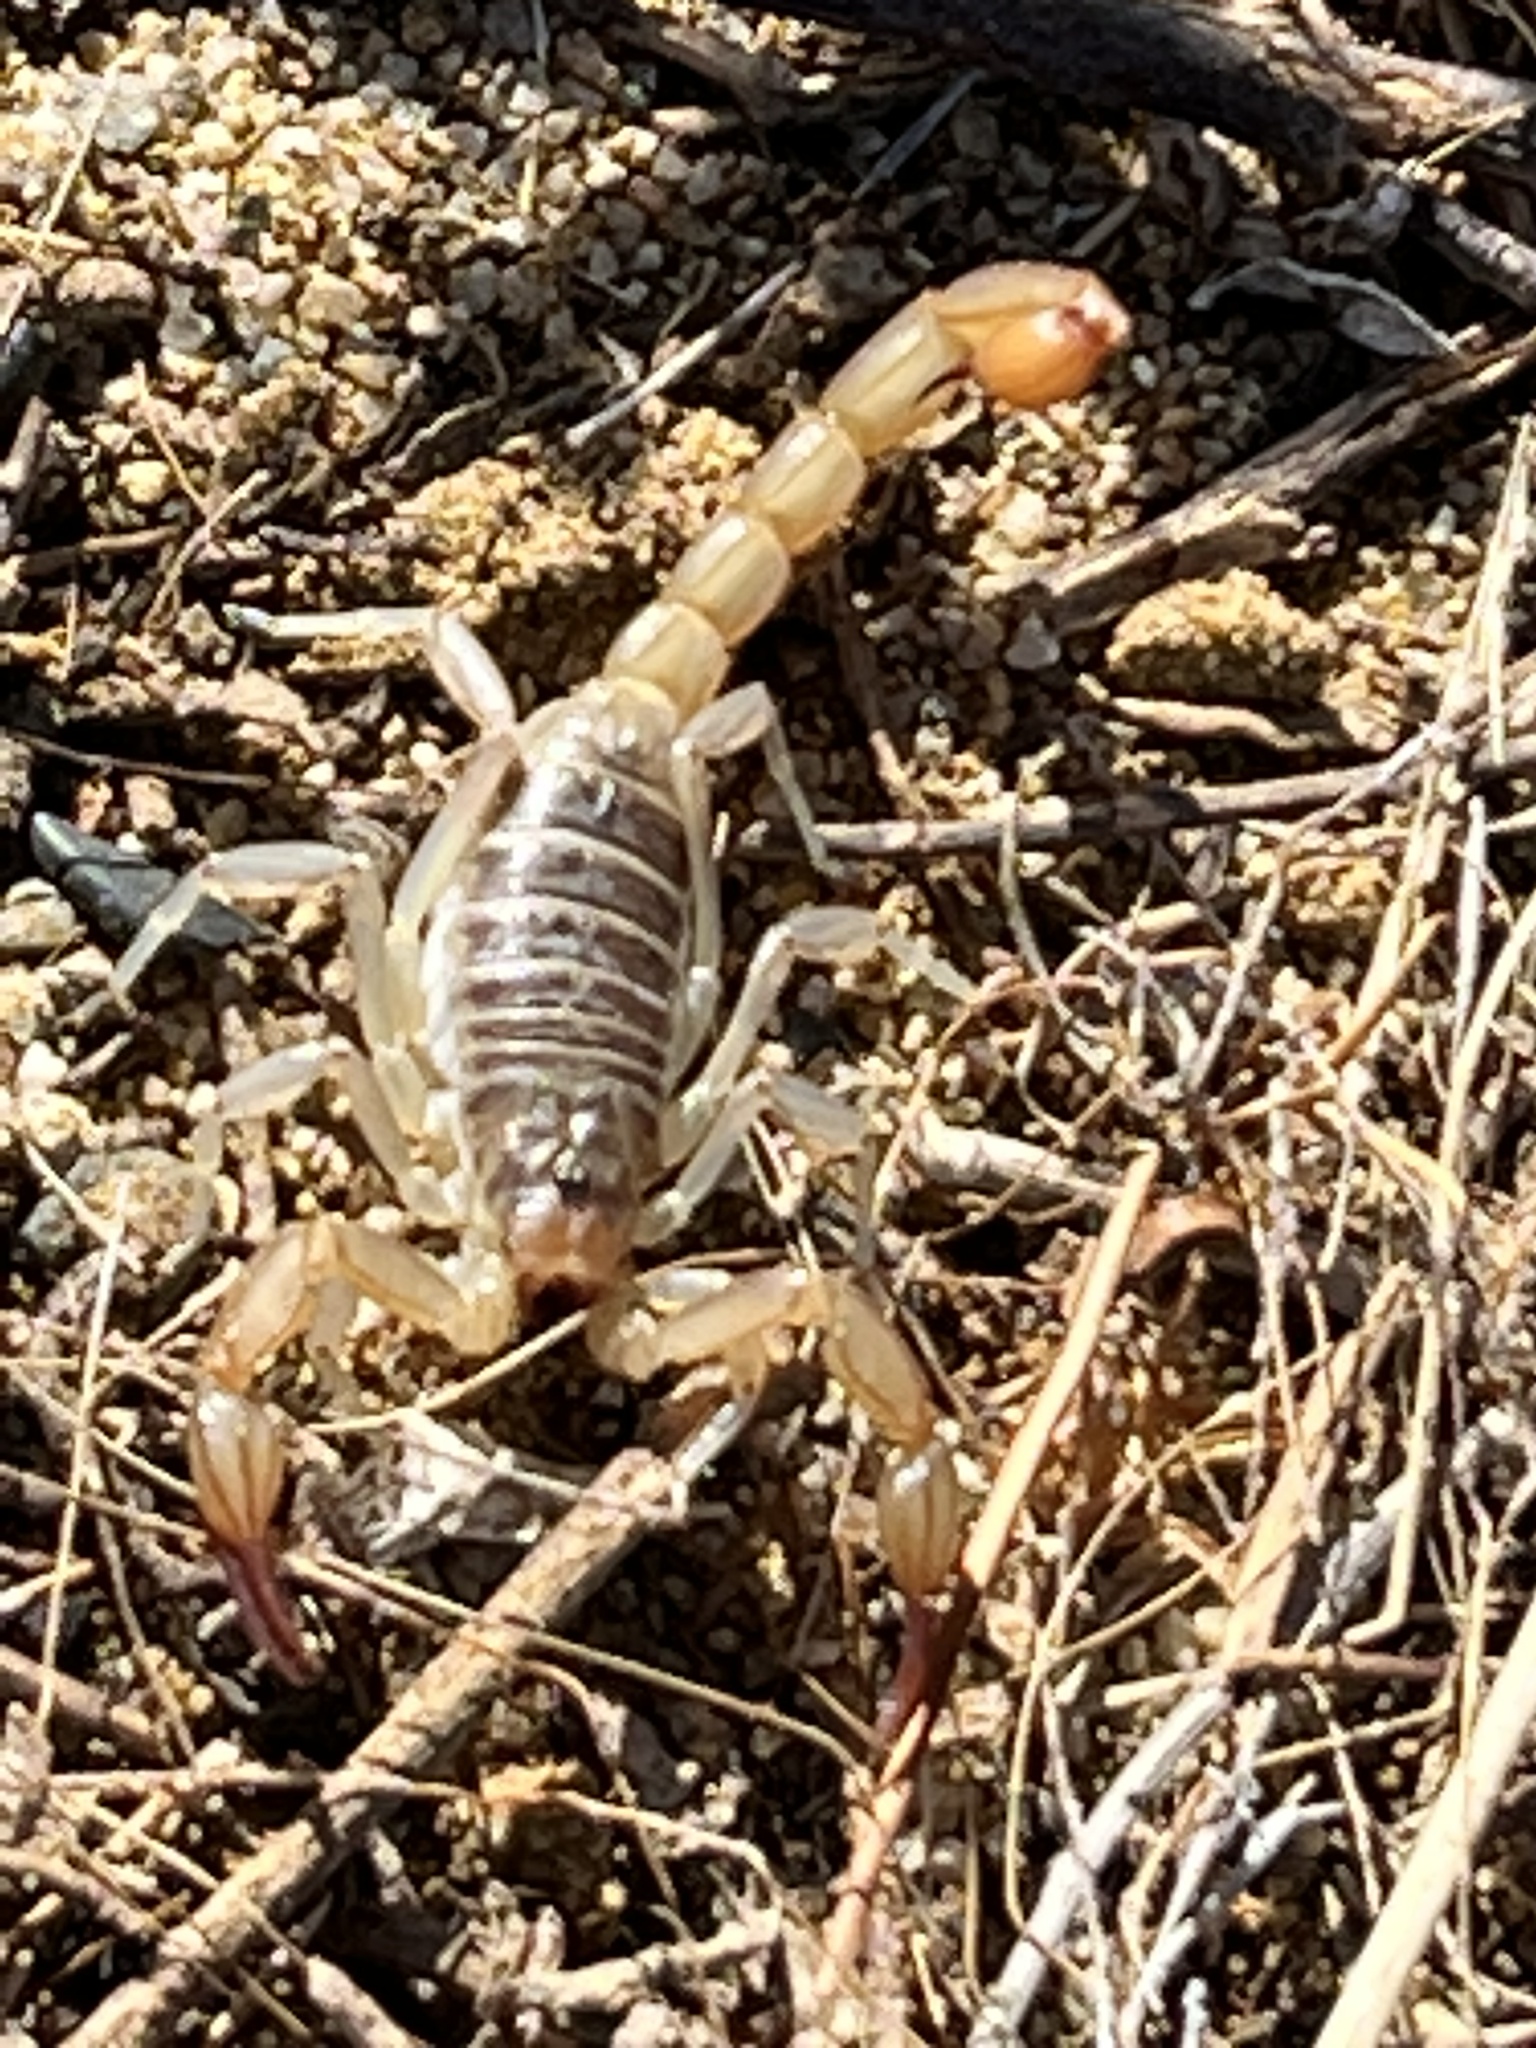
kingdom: Animalia
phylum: Arthropoda
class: Arachnida
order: Scorpiones
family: Vaejovidae
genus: Paruroctonus
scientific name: Paruroctonus silvestrii
